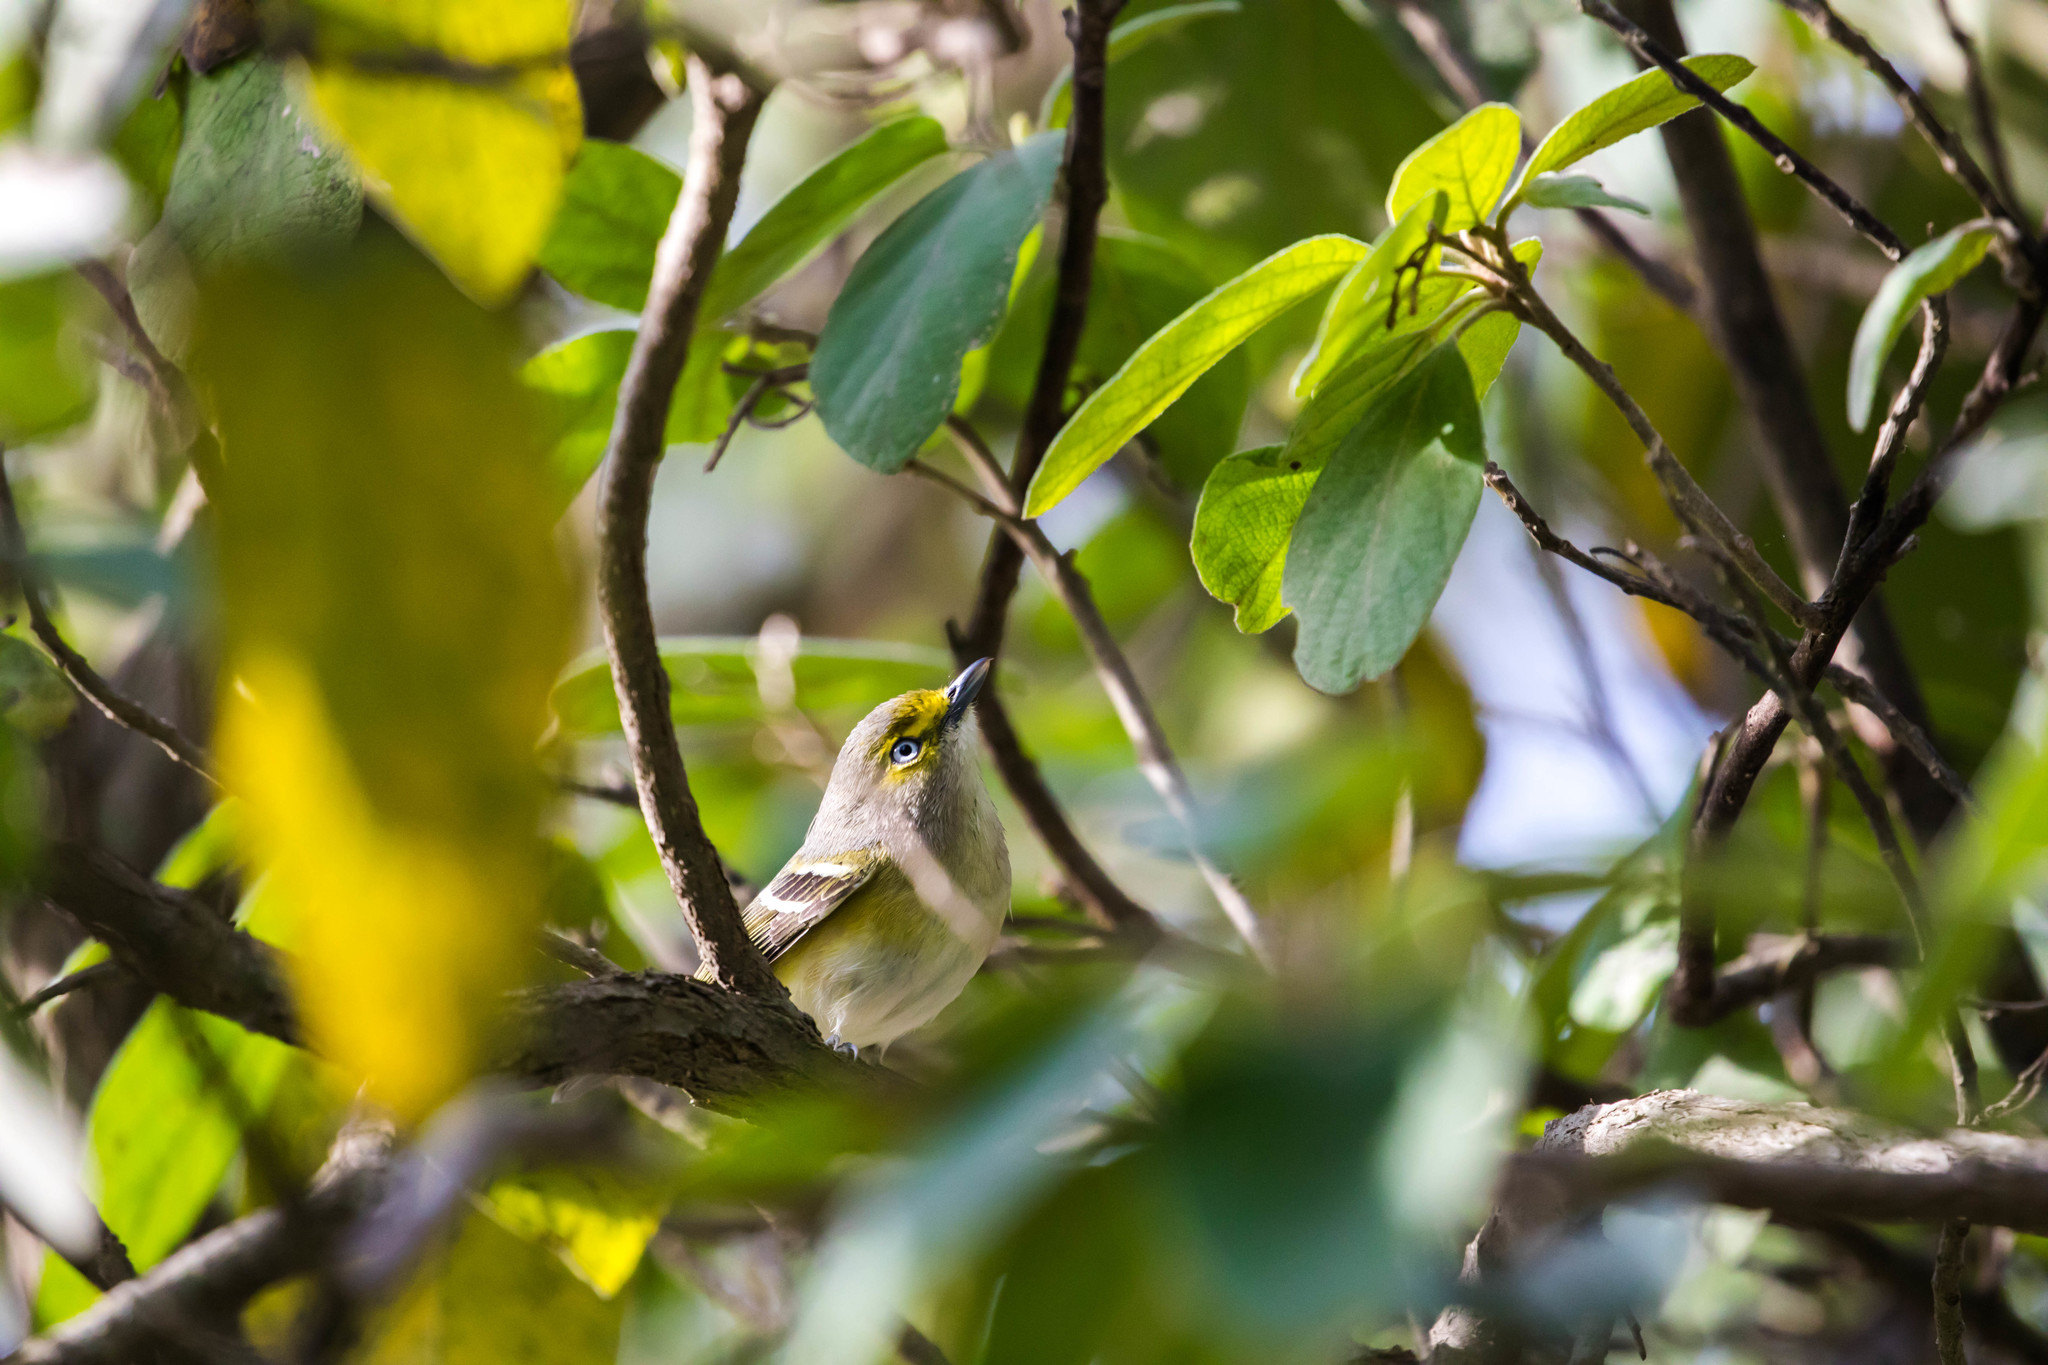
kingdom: Animalia
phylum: Chordata
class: Aves
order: Passeriformes
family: Vireonidae
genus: Vireo
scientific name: Vireo griseus
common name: White-eyed vireo
